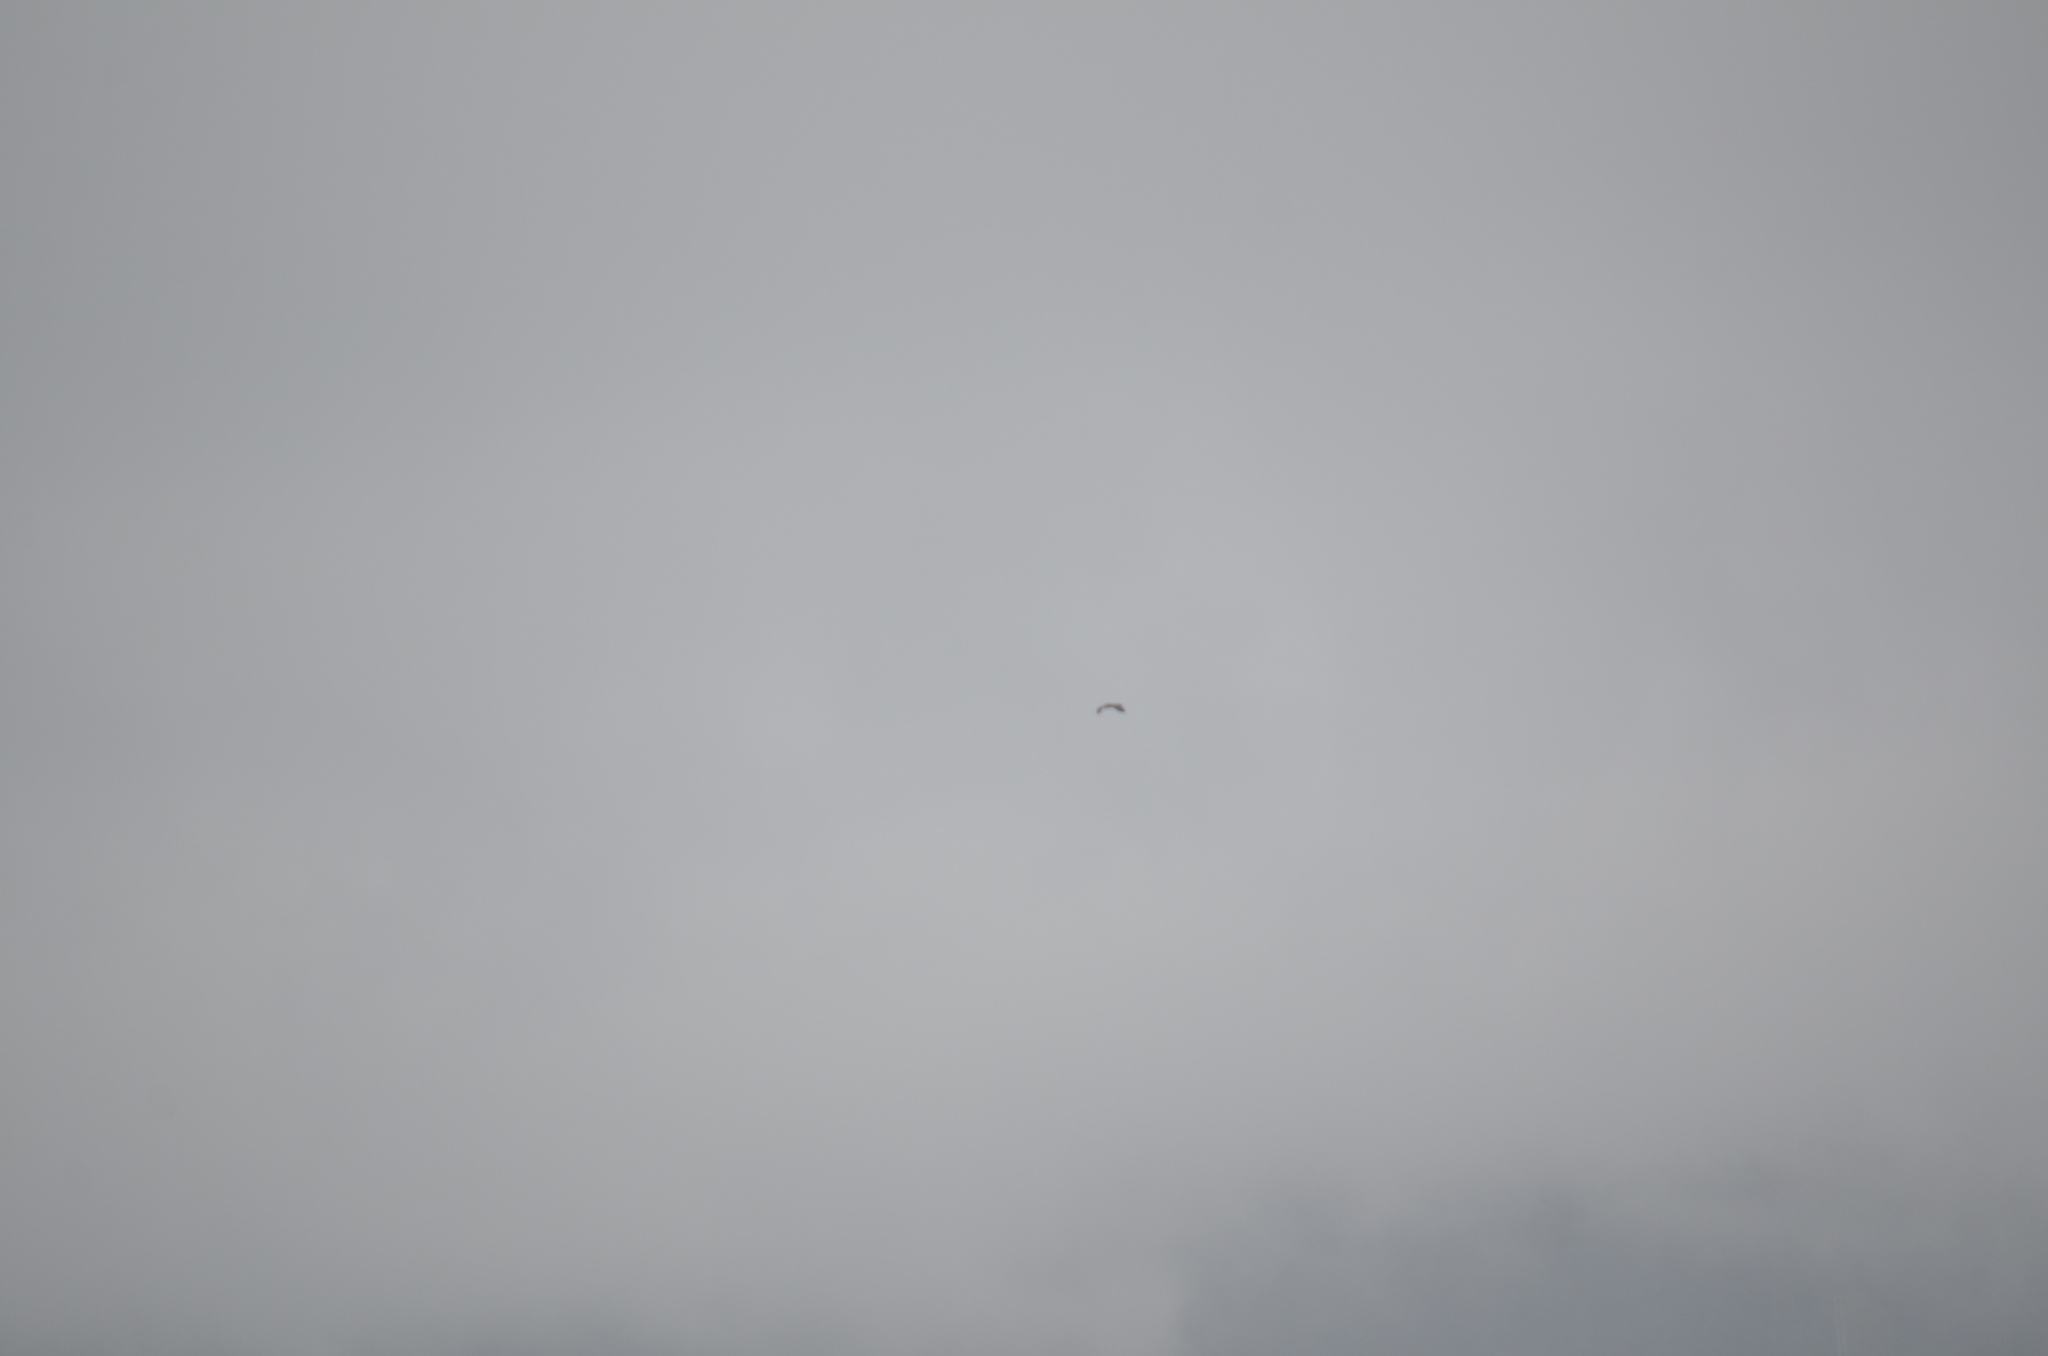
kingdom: Animalia
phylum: Chordata
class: Aves
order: Pelecaniformes
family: Ardeidae
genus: Ardea
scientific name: Ardea herodias
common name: Great blue heron
